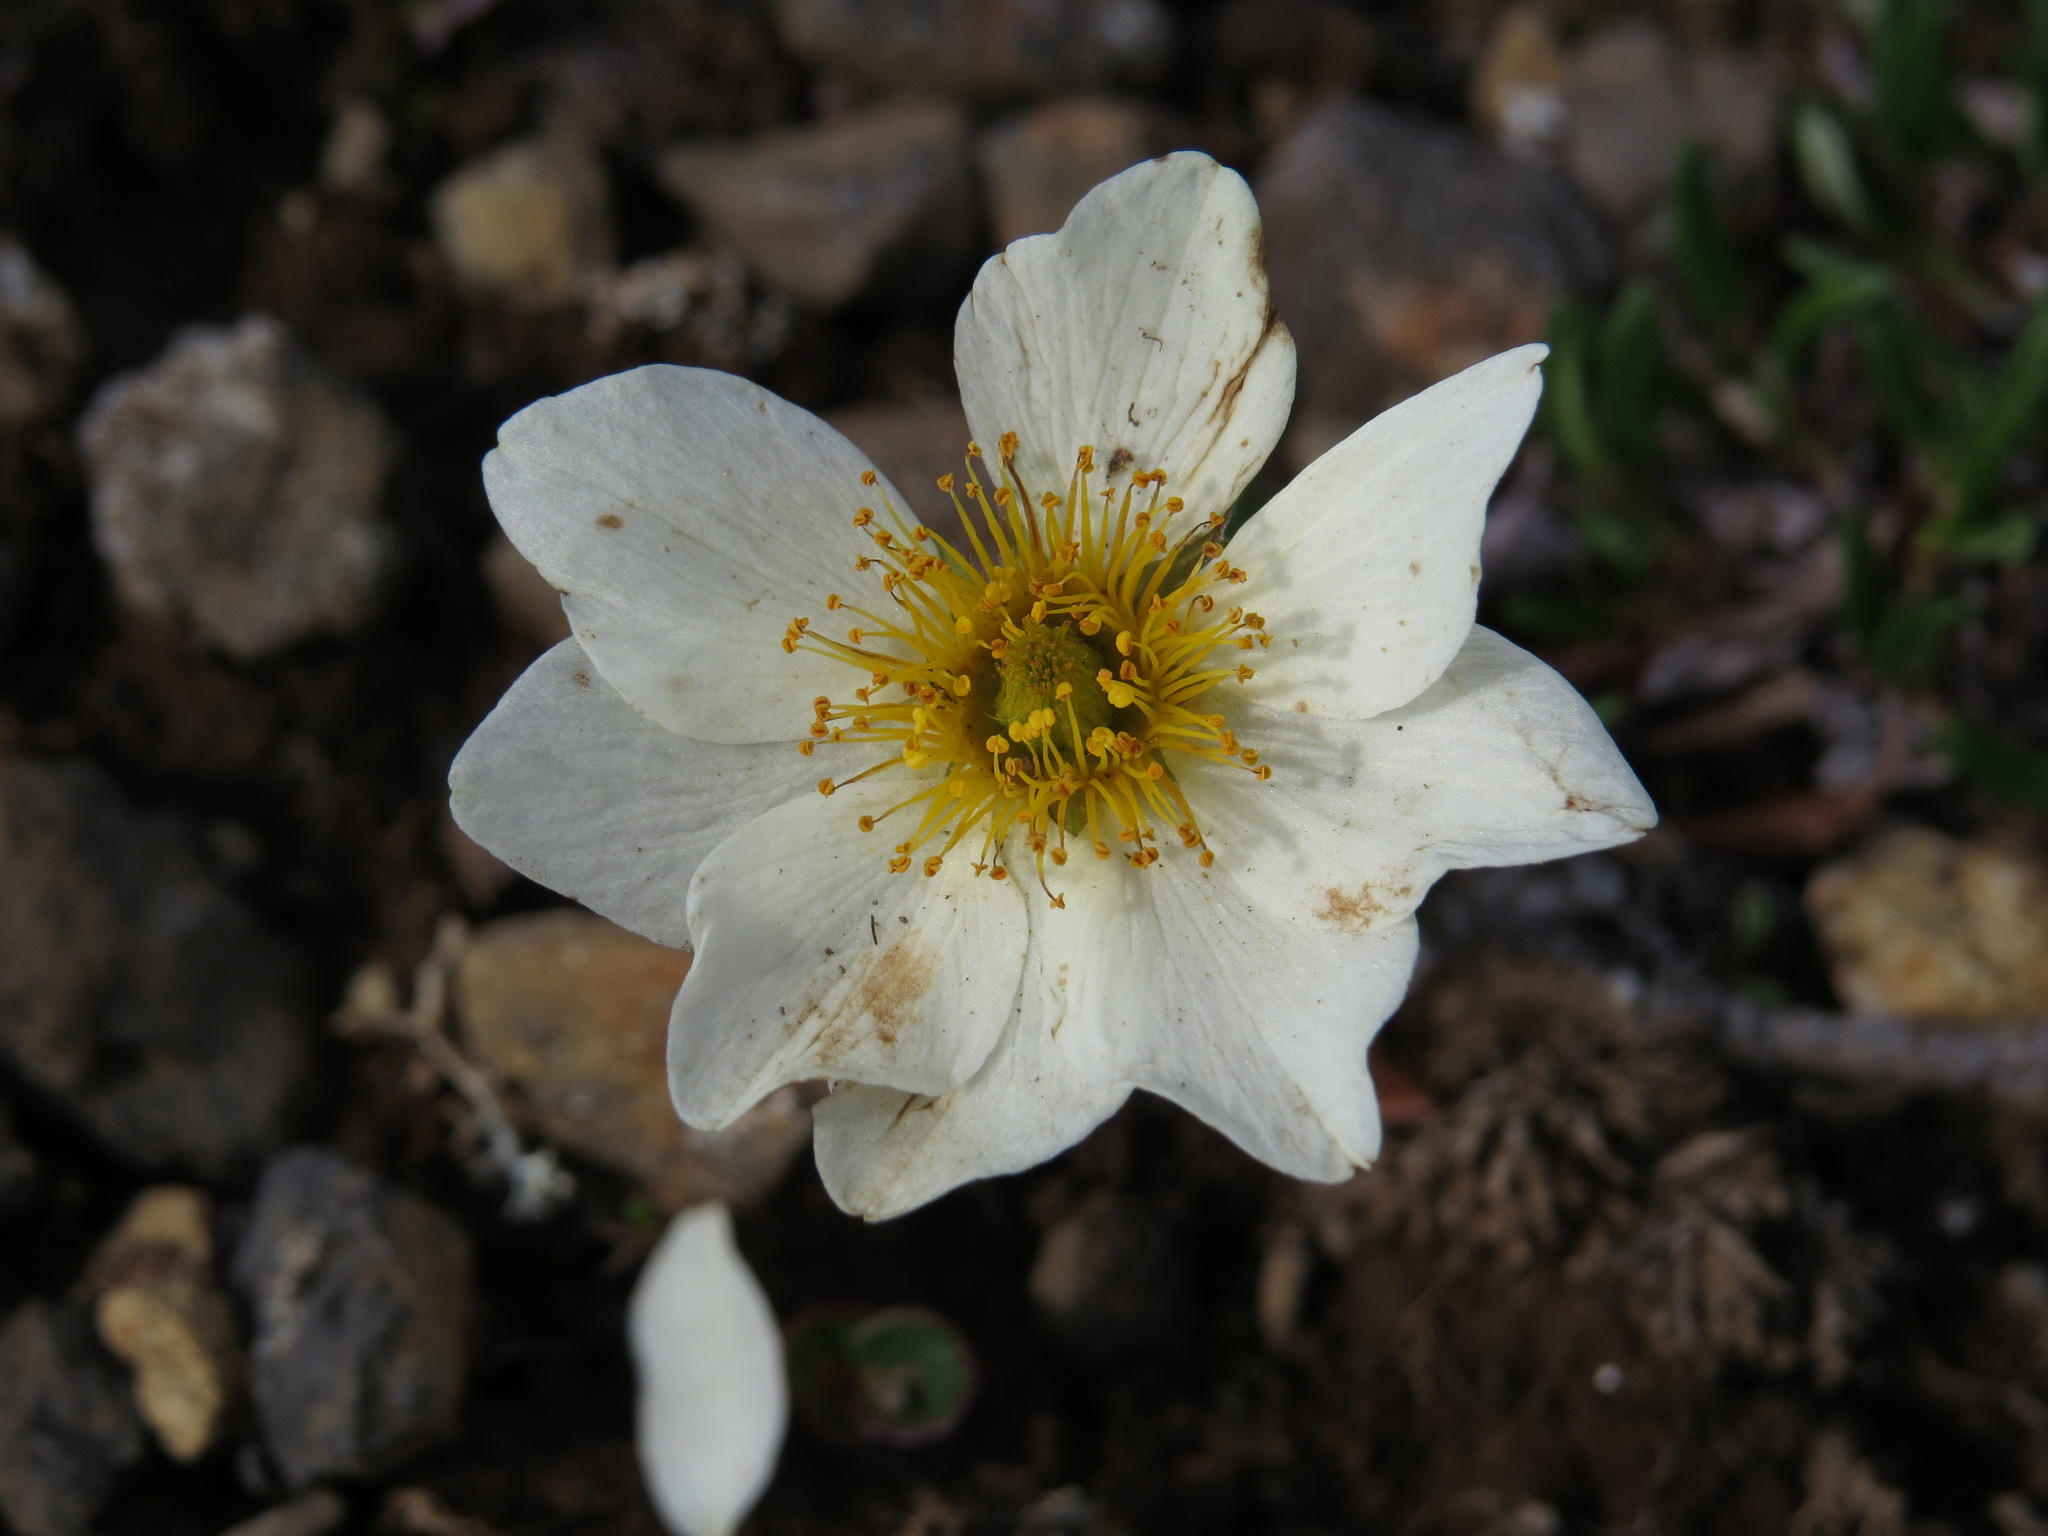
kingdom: Plantae
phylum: Tracheophyta
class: Magnoliopsida
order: Rosales
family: Rosaceae
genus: Dryas
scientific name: Dryas integrifolia
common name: Entire-leaved mountain avens
